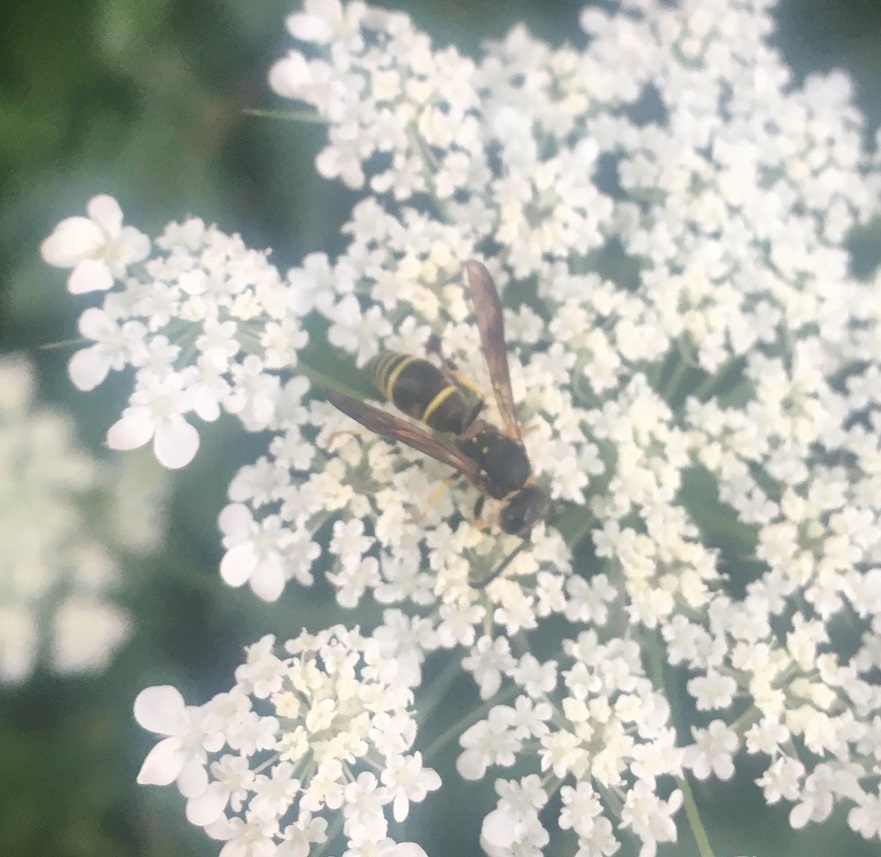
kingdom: Animalia
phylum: Arthropoda
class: Insecta
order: Hymenoptera
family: Vespidae
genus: Ancistrocerus
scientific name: Ancistrocerus
